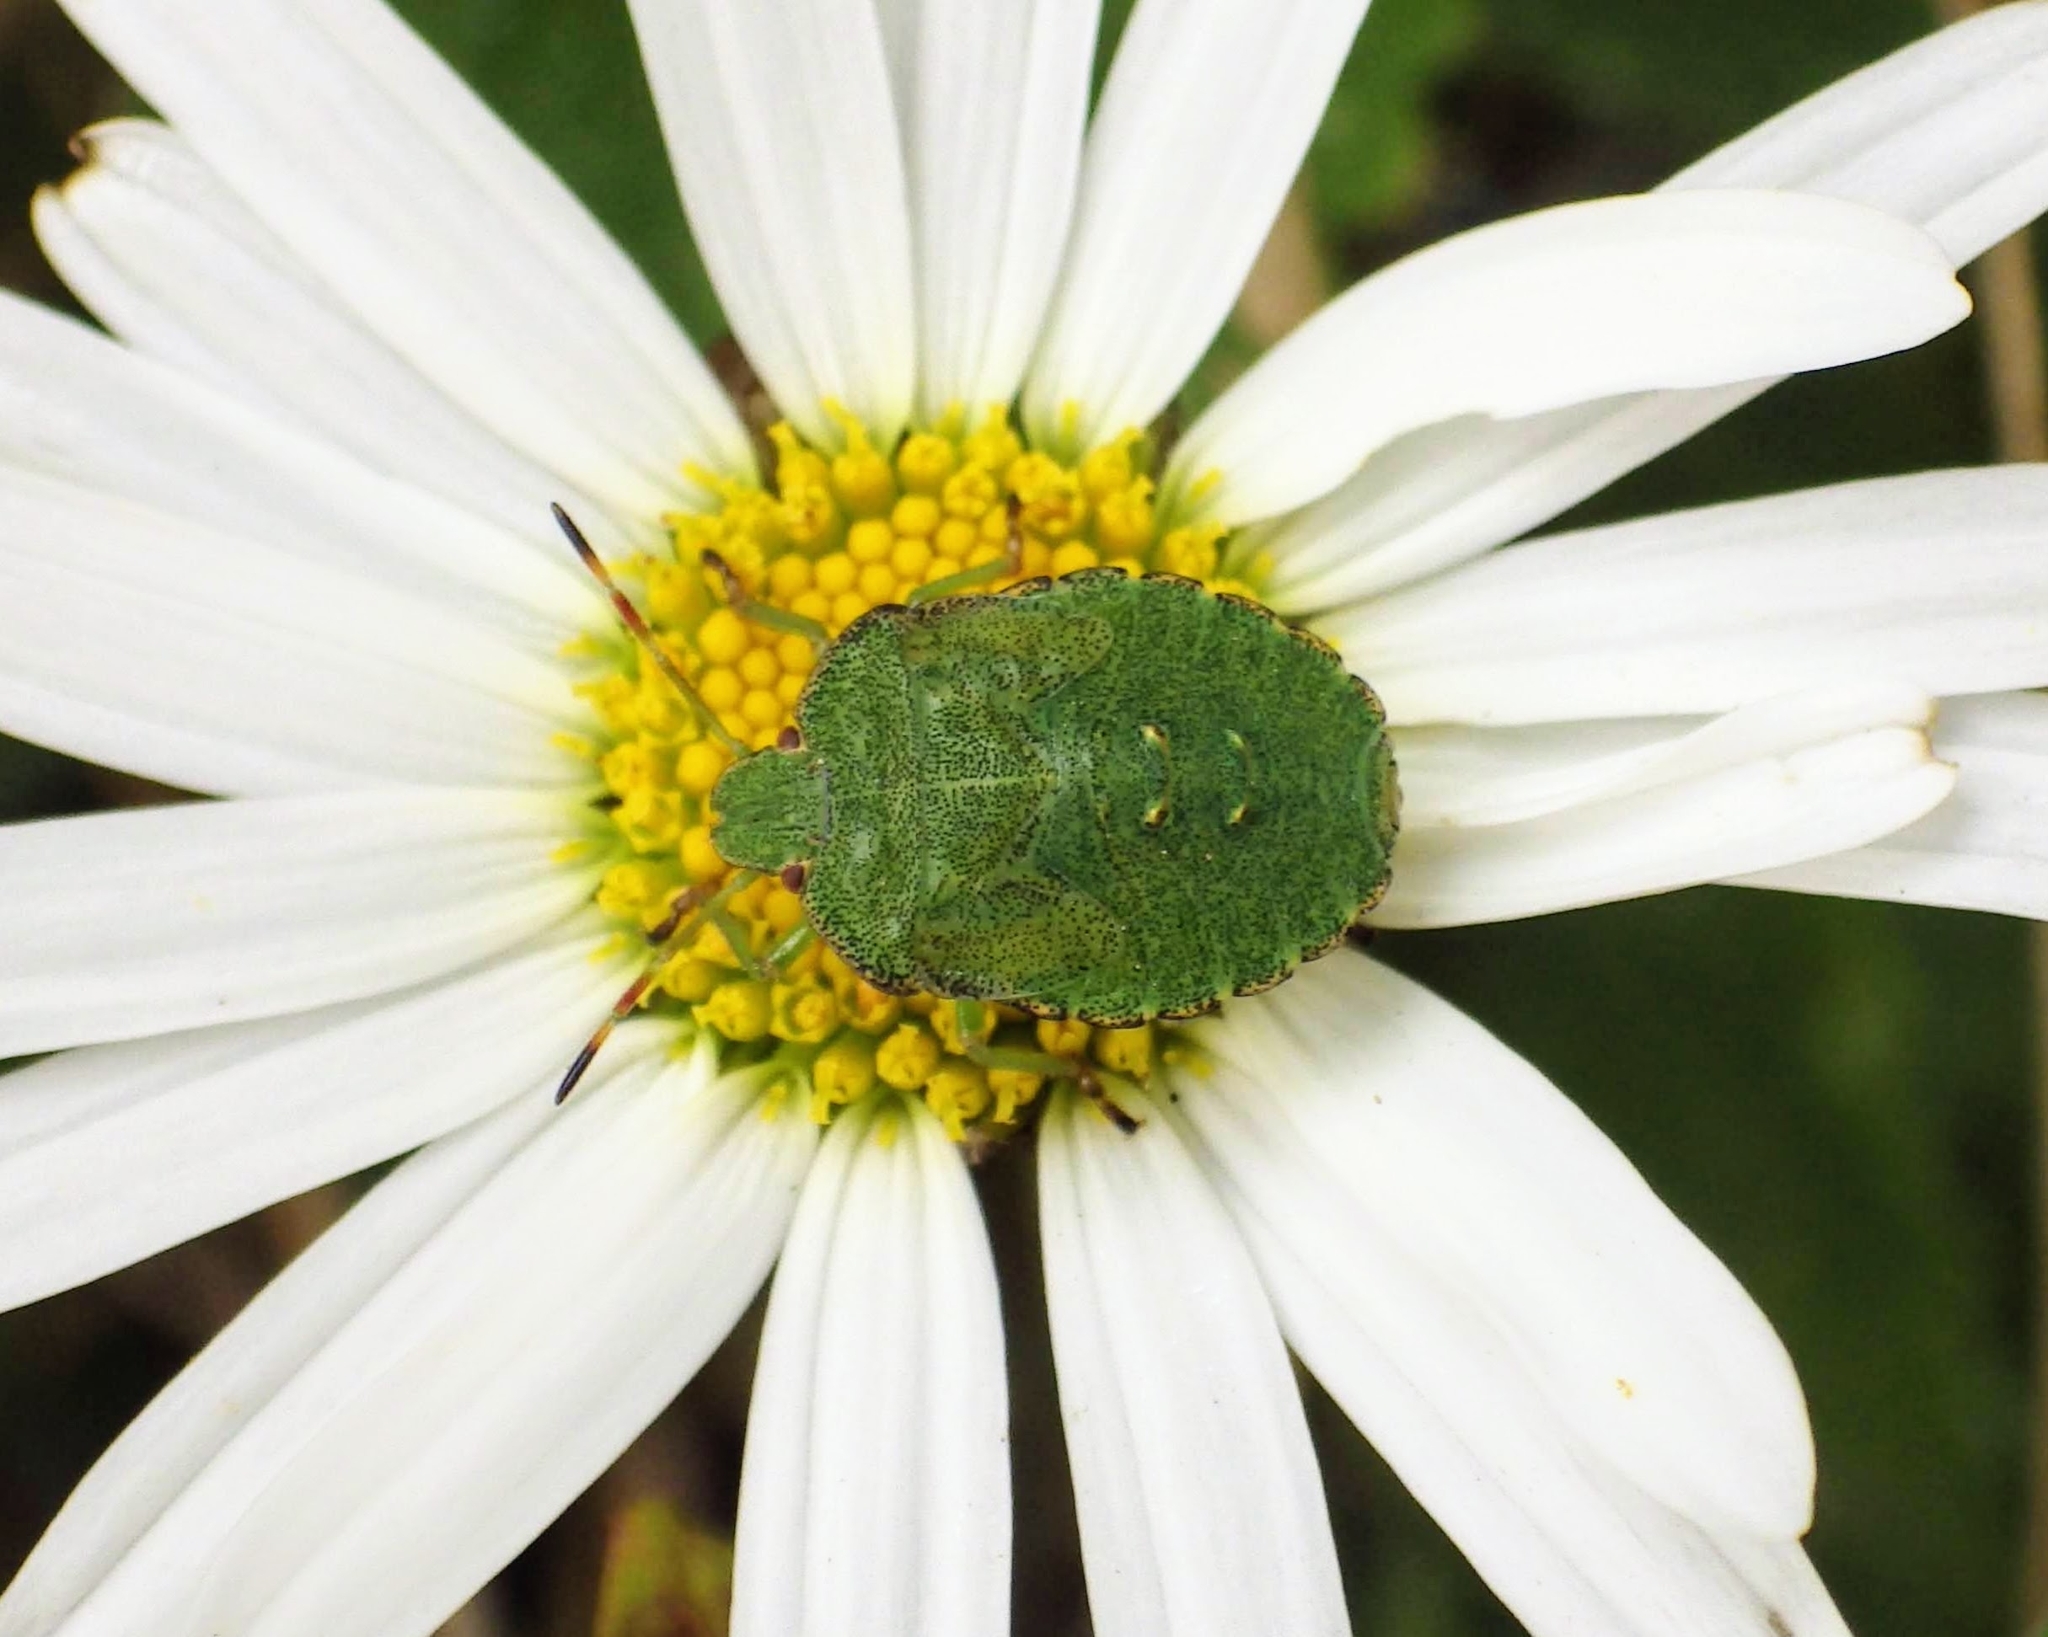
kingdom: Animalia
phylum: Arthropoda
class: Insecta
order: Hemiptera
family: Pentatomidae
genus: Palomena
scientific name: Palomena prasina
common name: Green shieldbug
